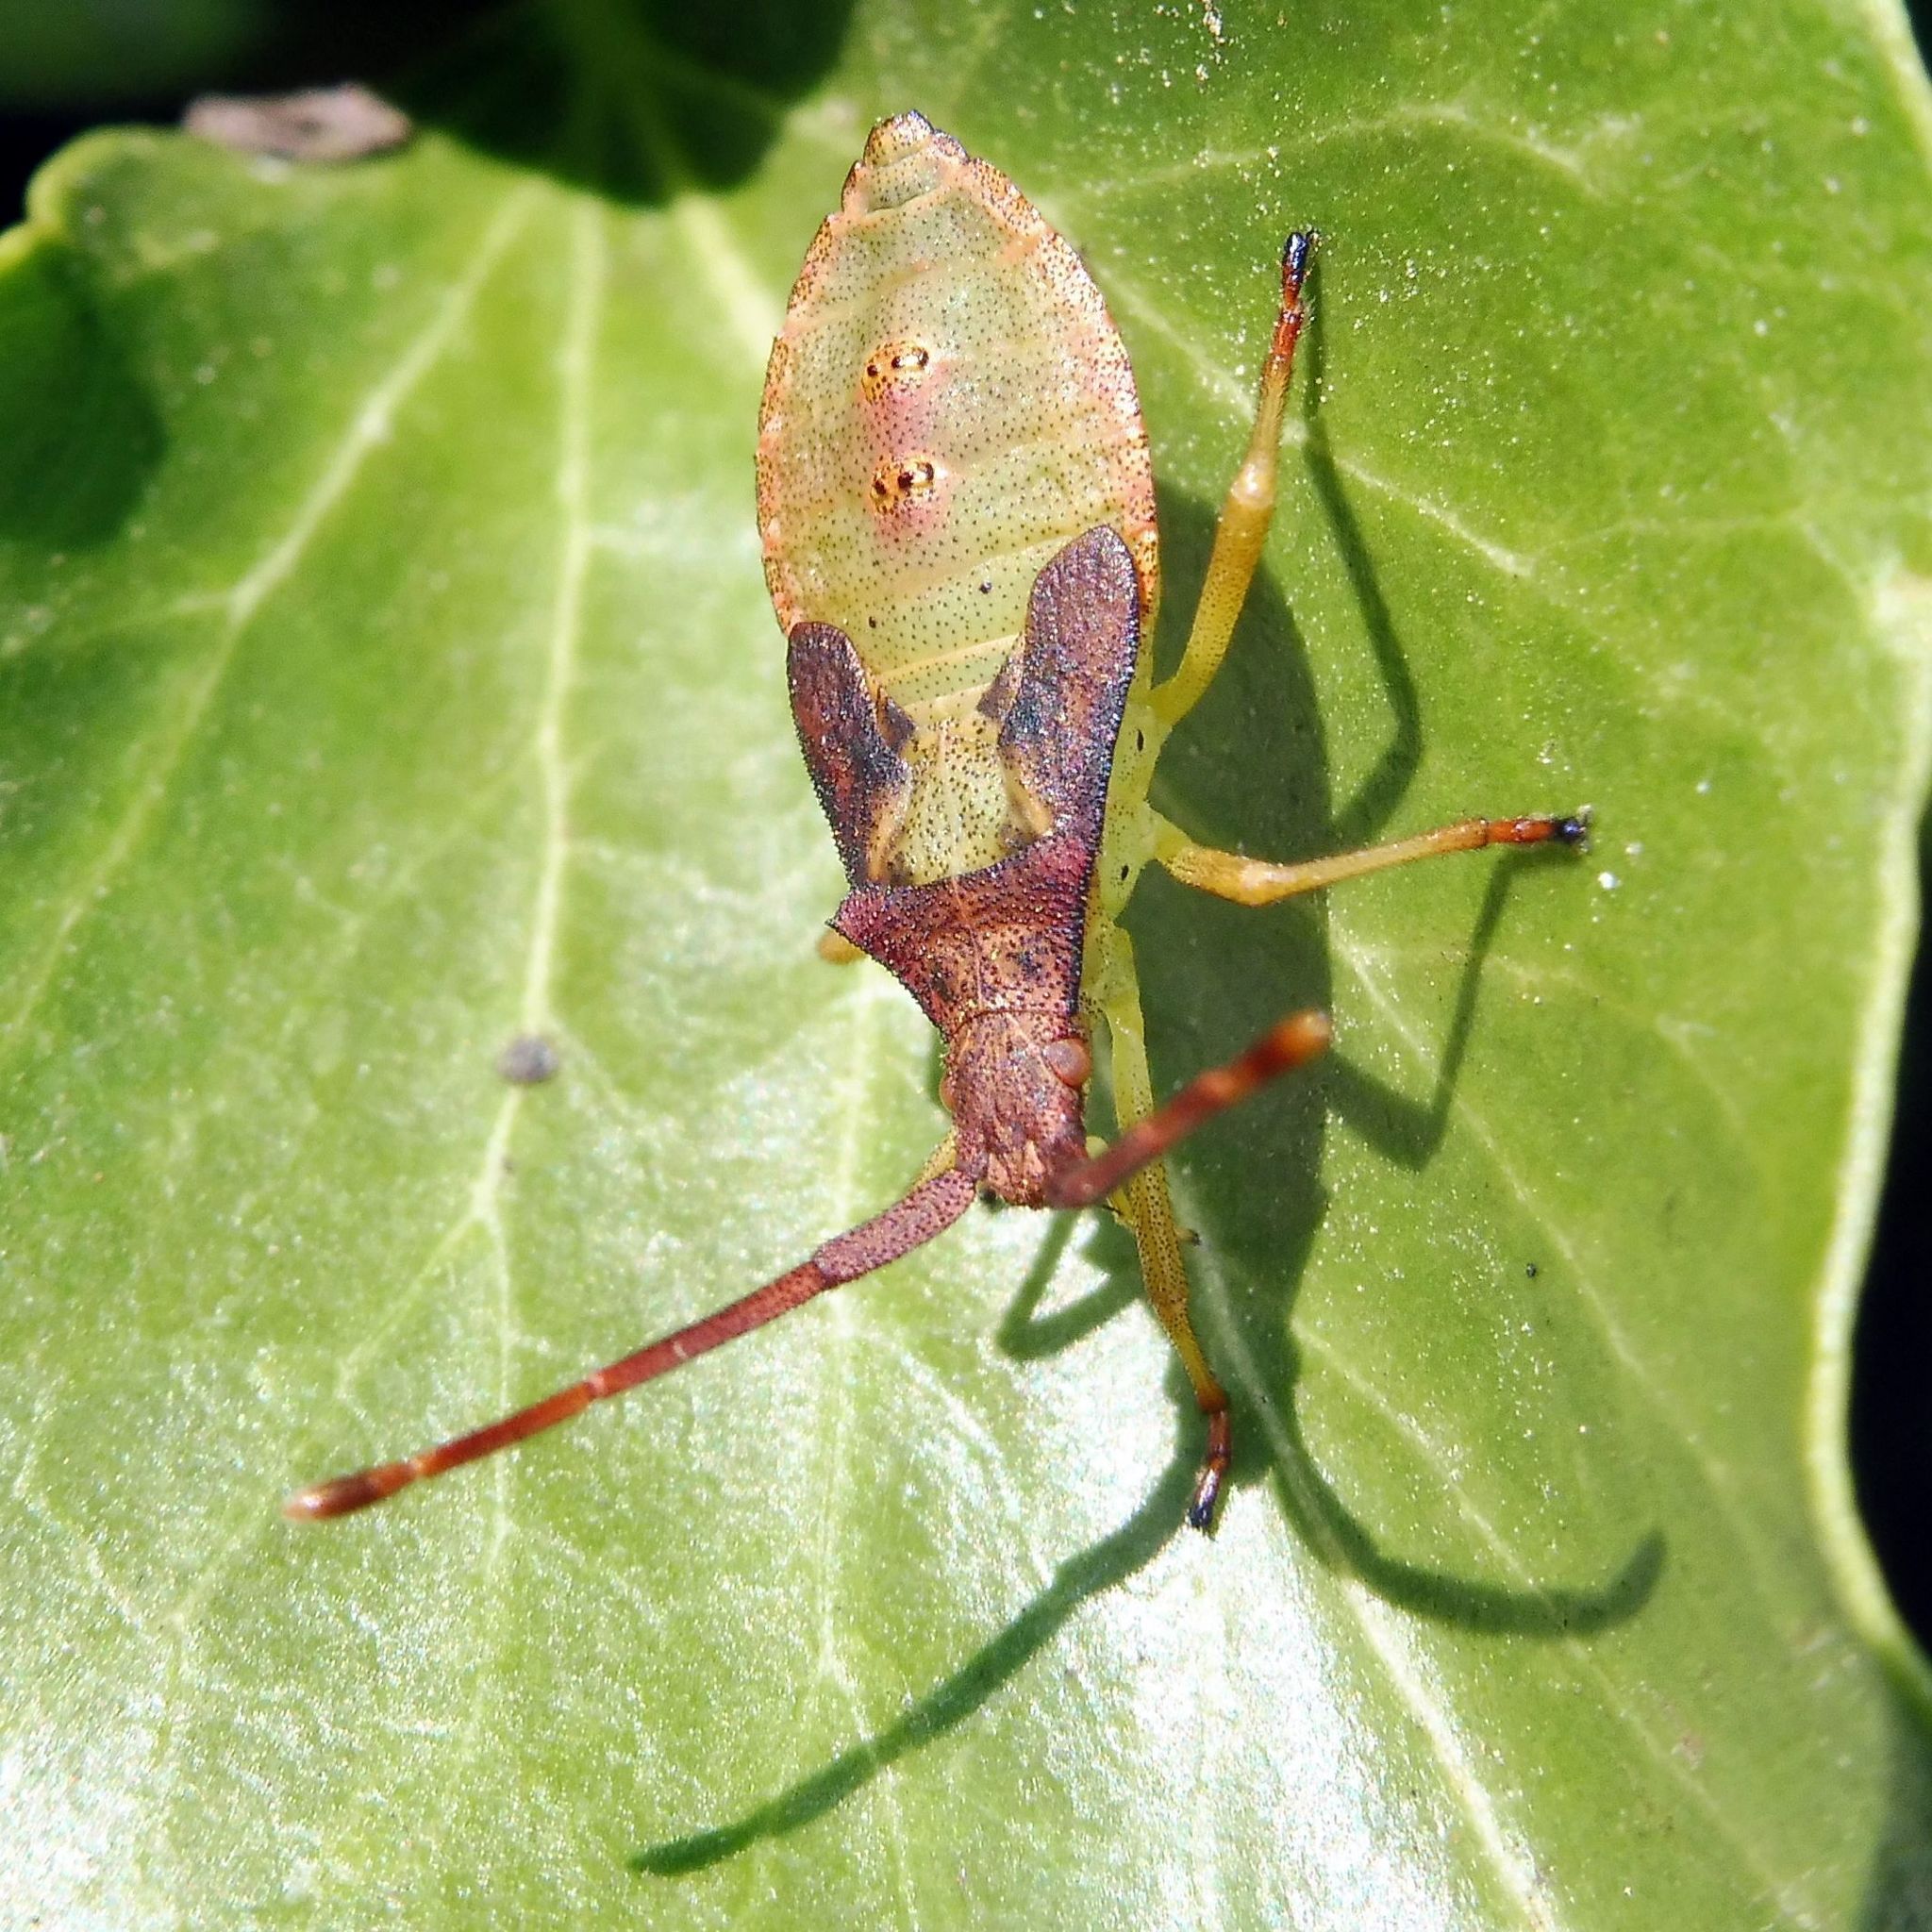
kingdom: Animalia
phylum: Arthropoda
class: Insecta
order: Hemiptera
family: Coreidae
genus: Gonocerus
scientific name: Gonocerus acuteangulatus
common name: Box bug
